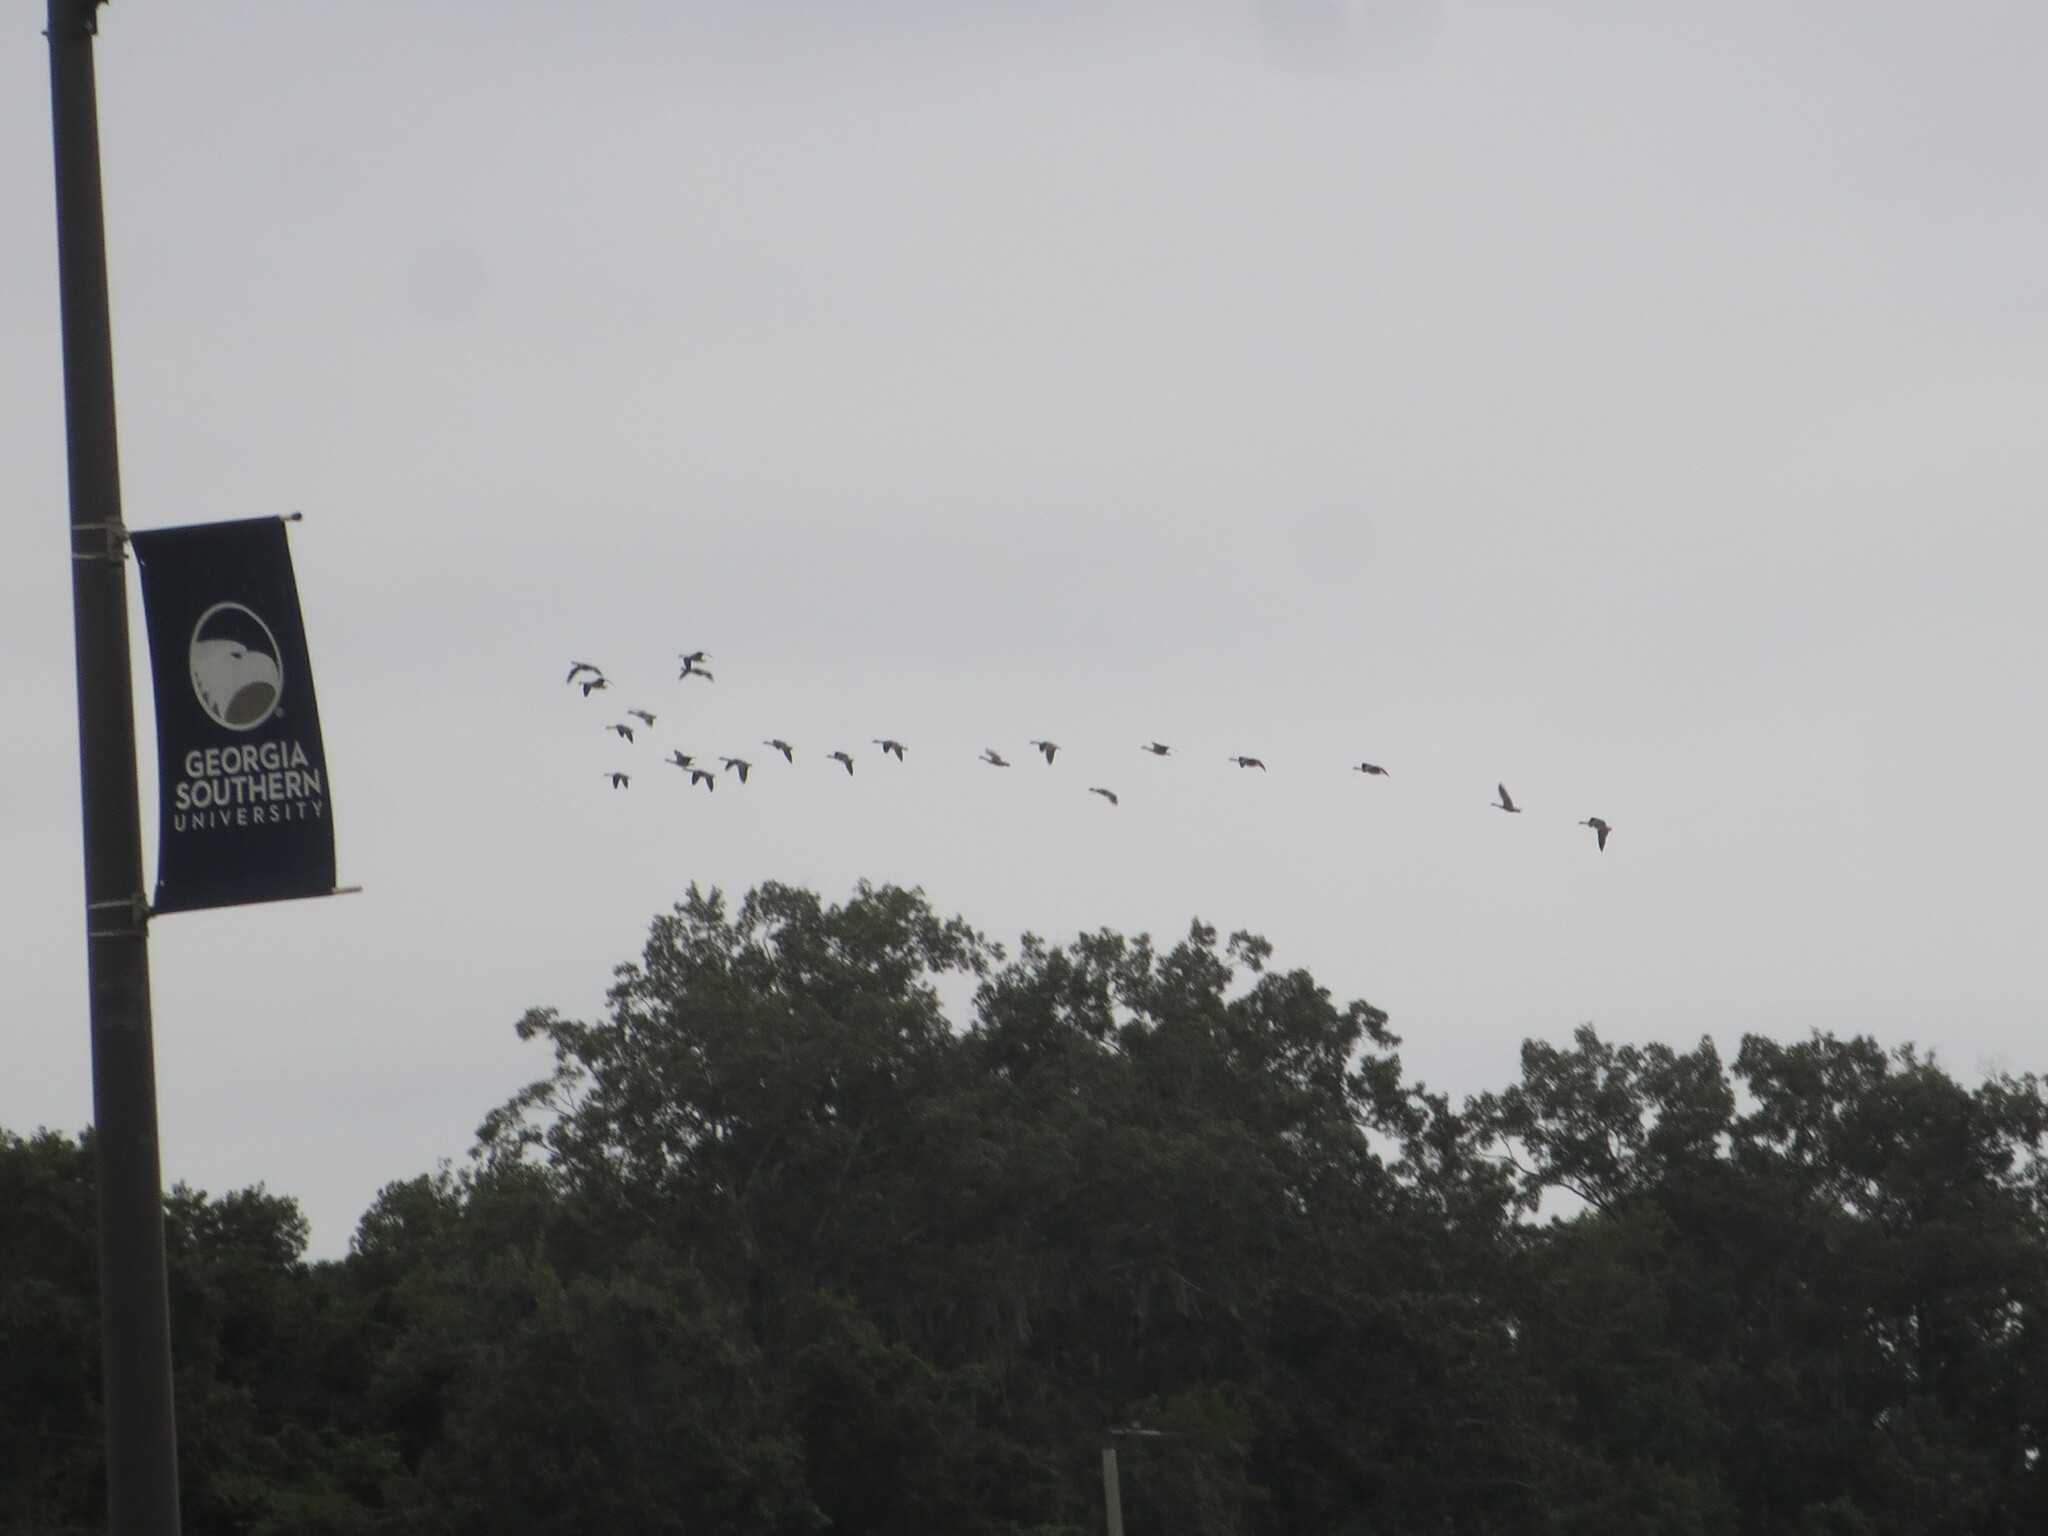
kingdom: Animalia
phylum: Chordata
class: Aves
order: Anseriformes
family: Anatidae
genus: Branta
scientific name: Branta canadensis
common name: Canada goose
